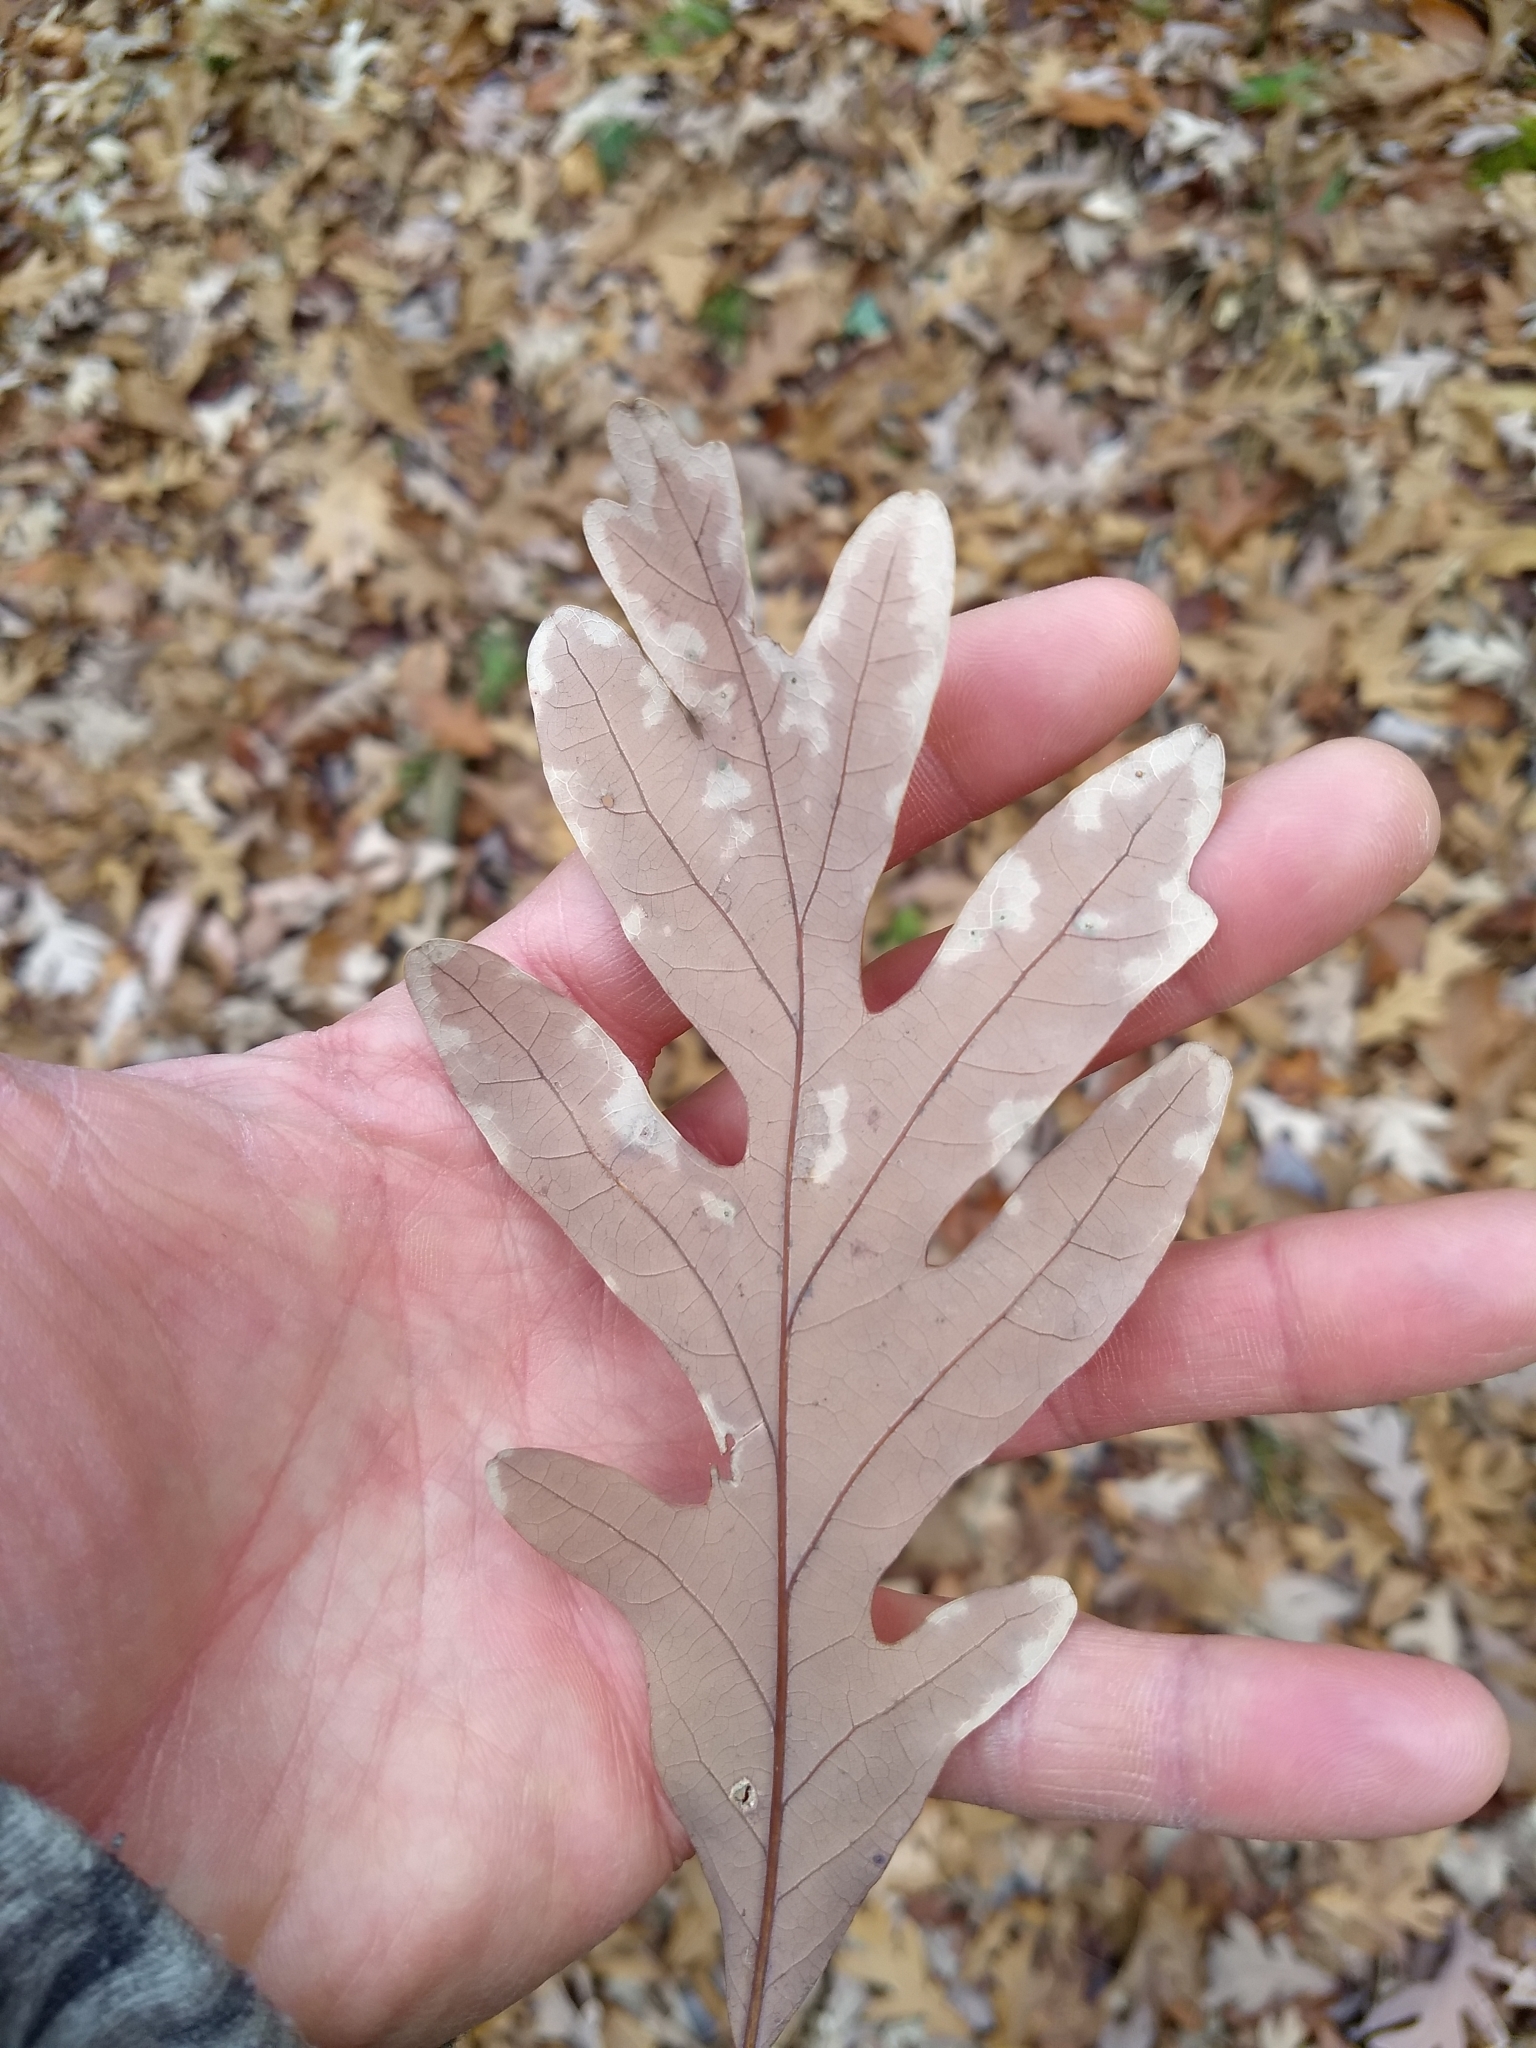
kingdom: Plantae
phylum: Tracheophyta
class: Magnoliopsida
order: Fagales
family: Fagaceae
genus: Quercus
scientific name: Quercus alba
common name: White oak
